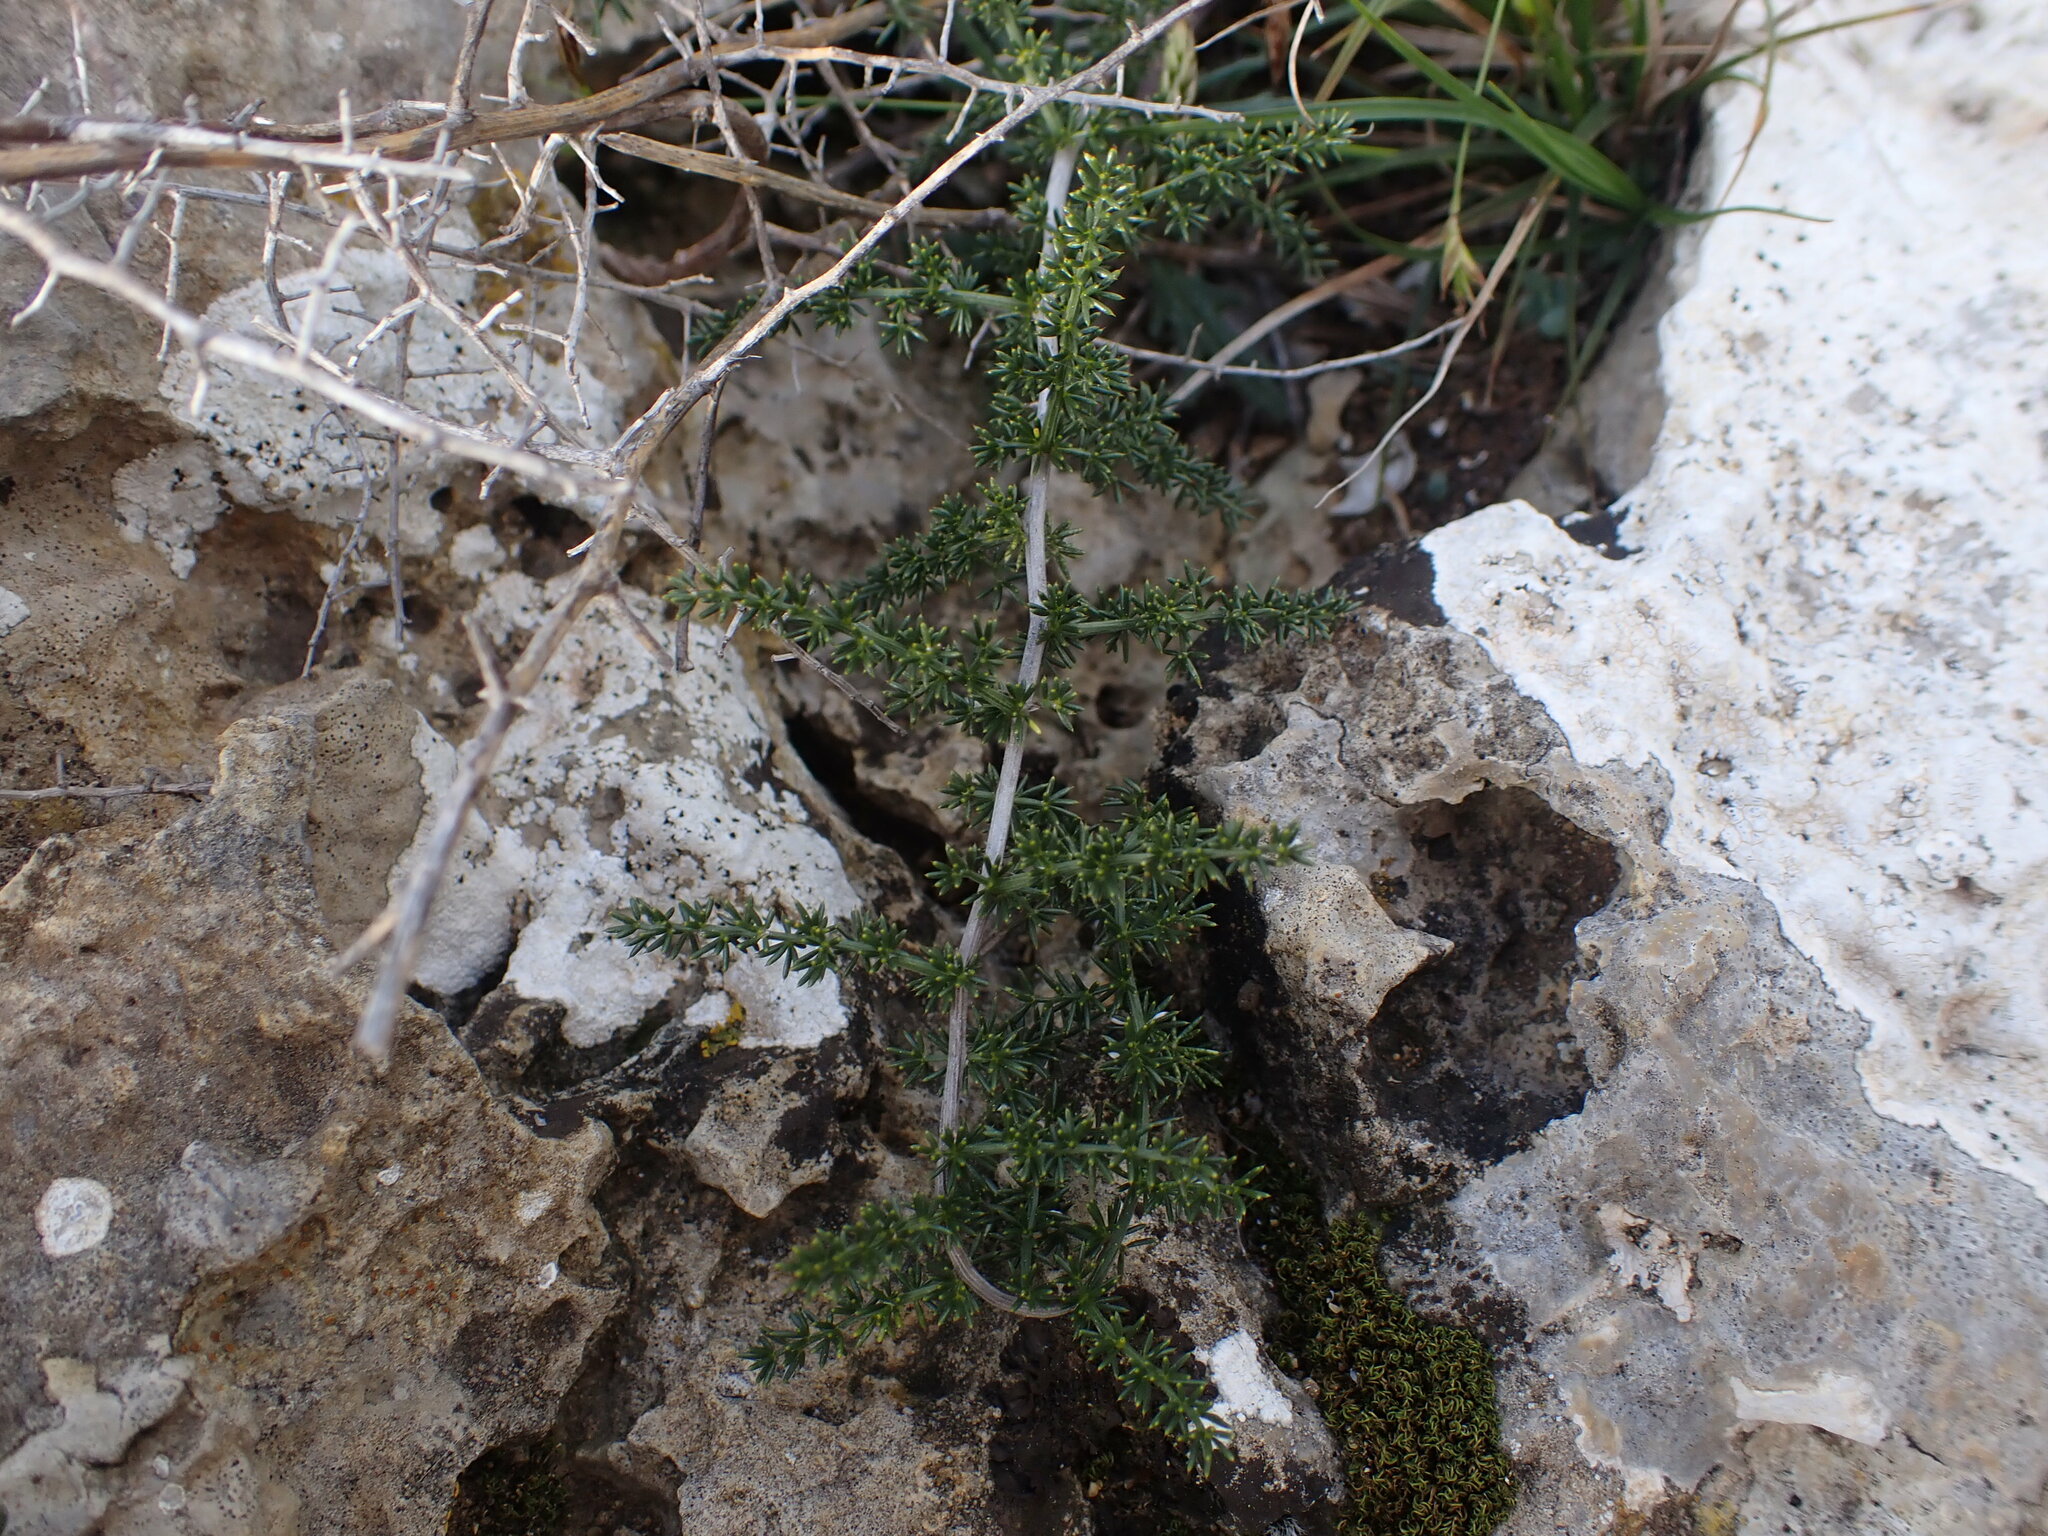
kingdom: Plantae
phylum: Tracheophyta
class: Liliopsida
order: Asparagales
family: Asparagaceae
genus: Asparagus
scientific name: Asparagus acutifolius
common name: Wild asparagus
